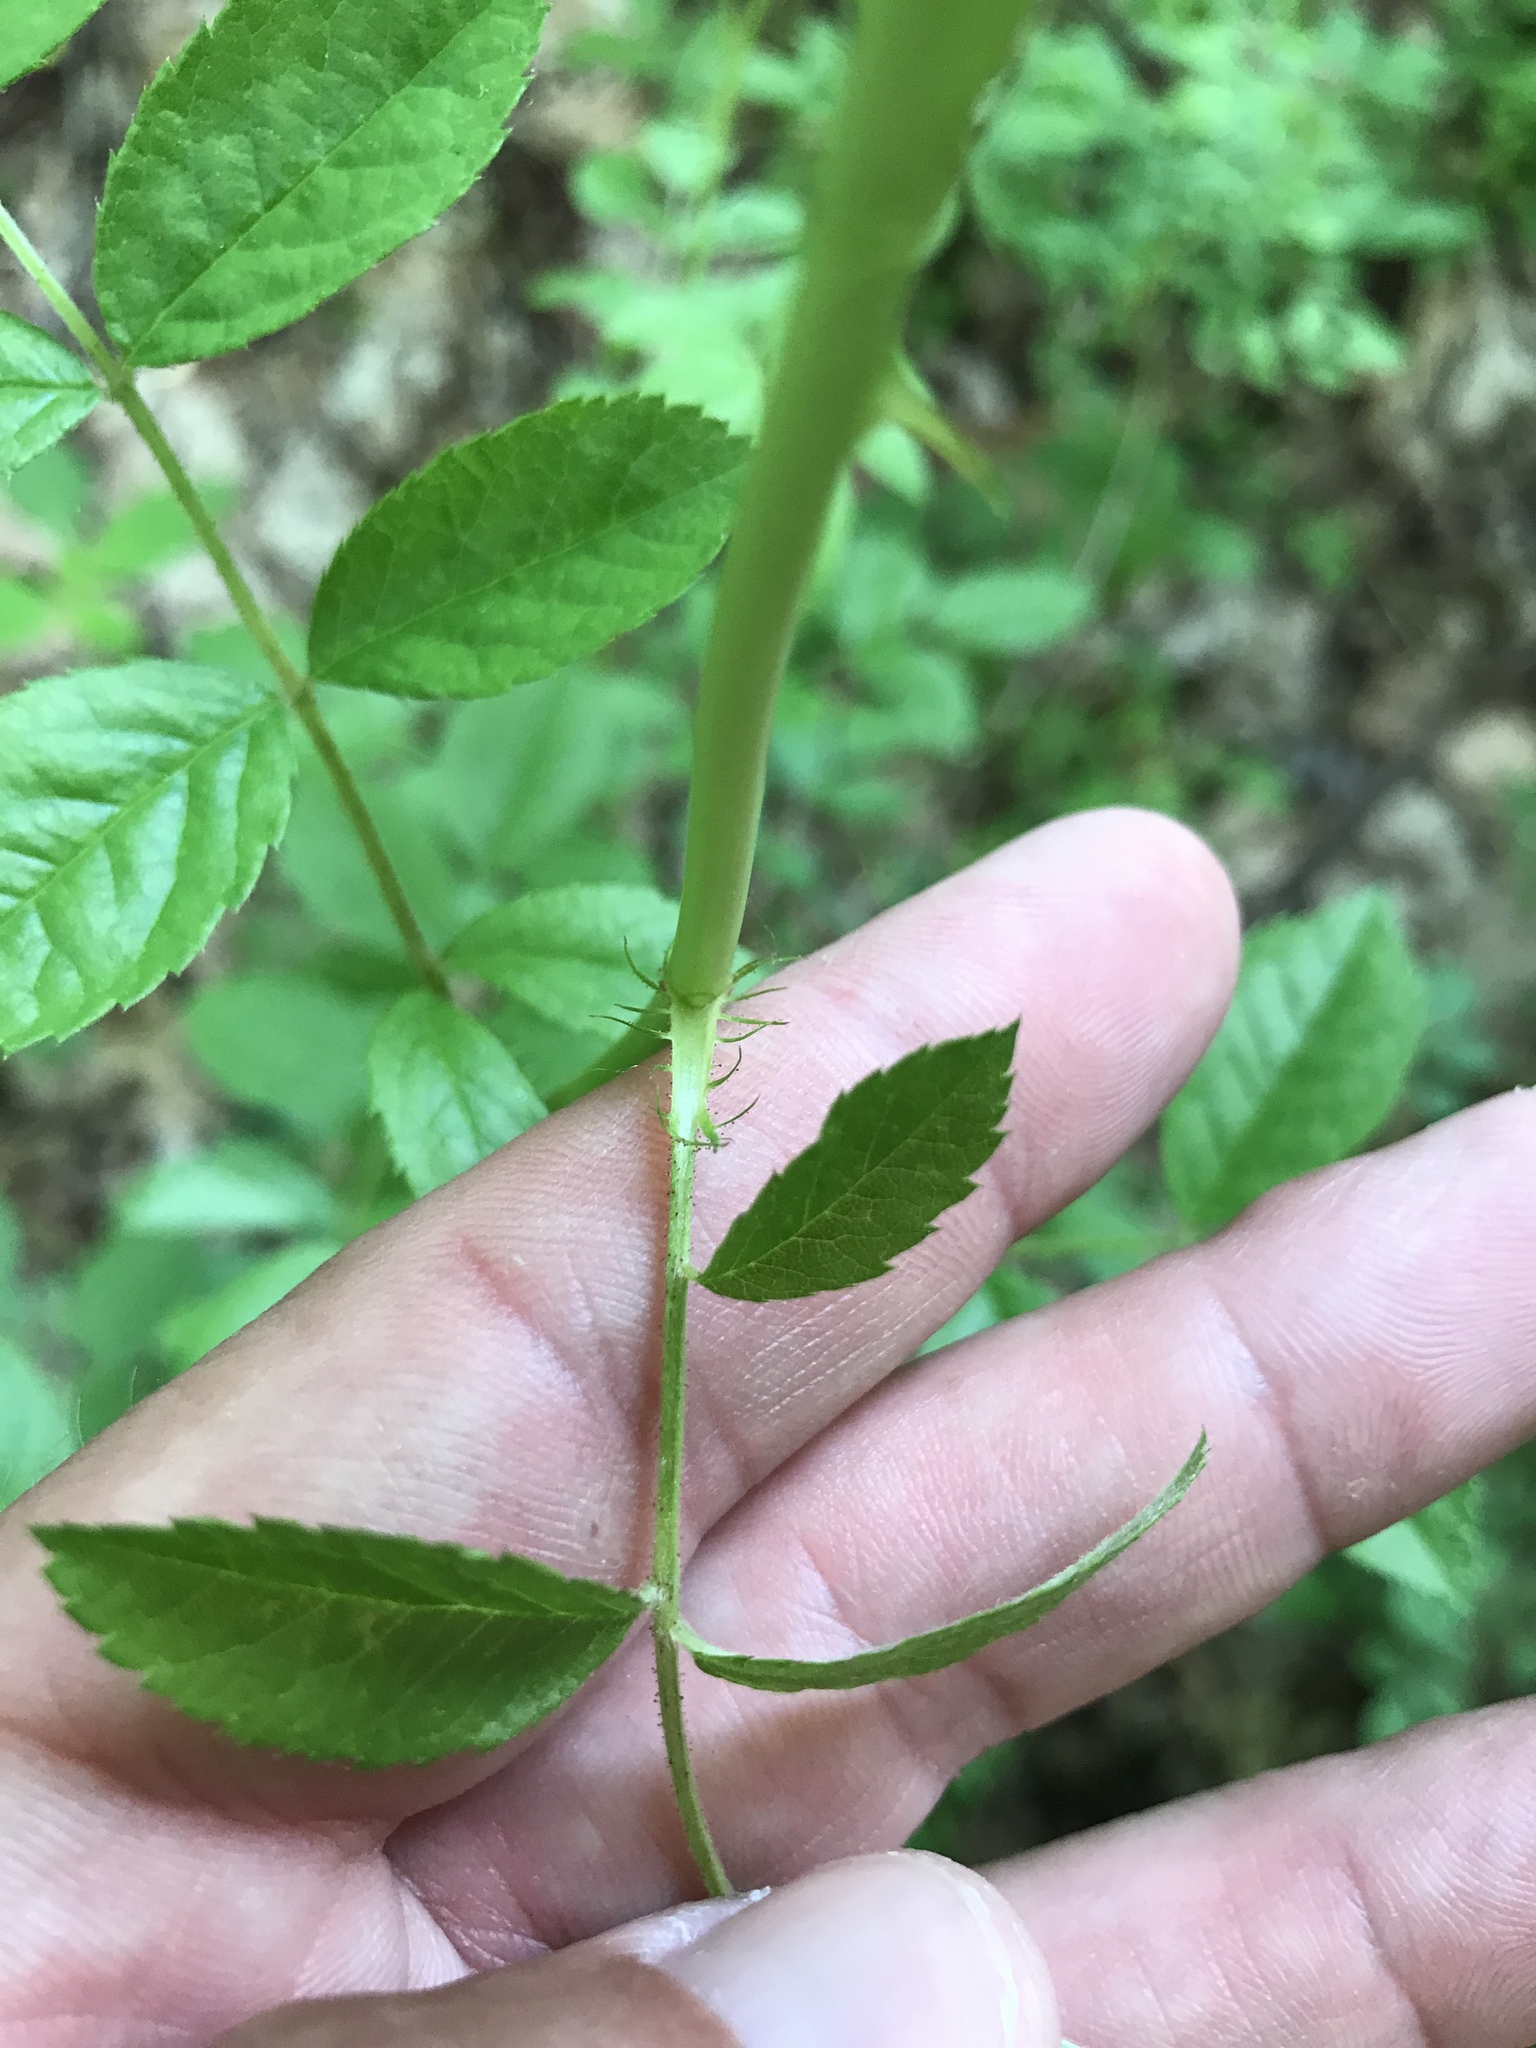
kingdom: Plantae
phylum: Tracheophyta
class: Magnoliopsida
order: Rosales
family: Rosaceae
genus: Rosa
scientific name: Rosa multiflora
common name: Multiflora rose
